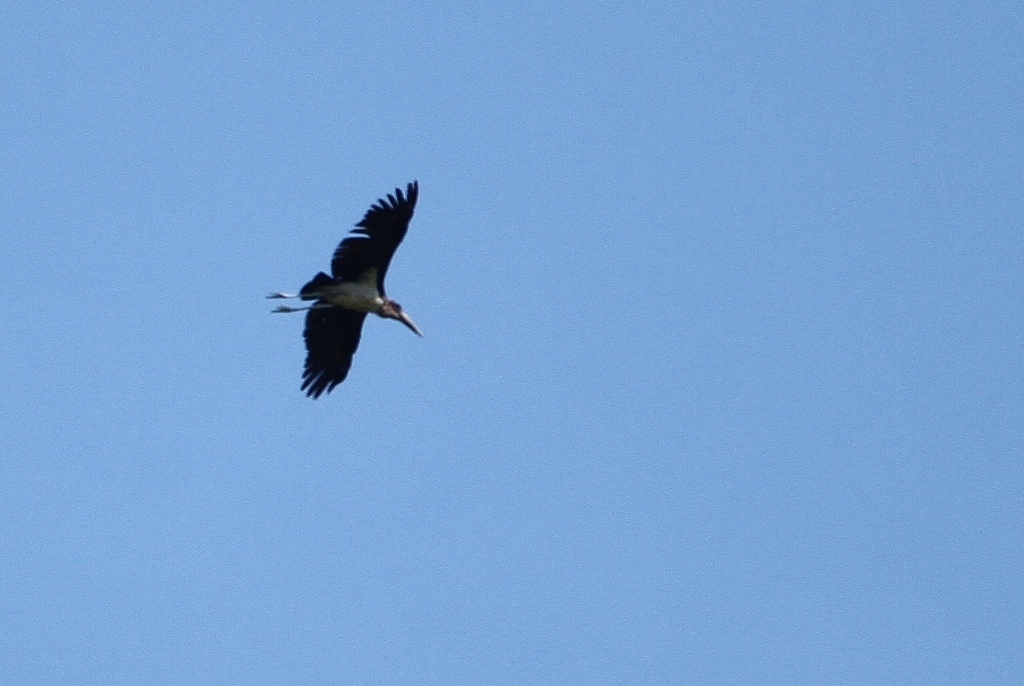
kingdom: Animalia
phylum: Chordata
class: Aves
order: Ciconiiformes
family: Ciconiidae
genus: Leptoptilos
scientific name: Leptoptilos crumenifer
